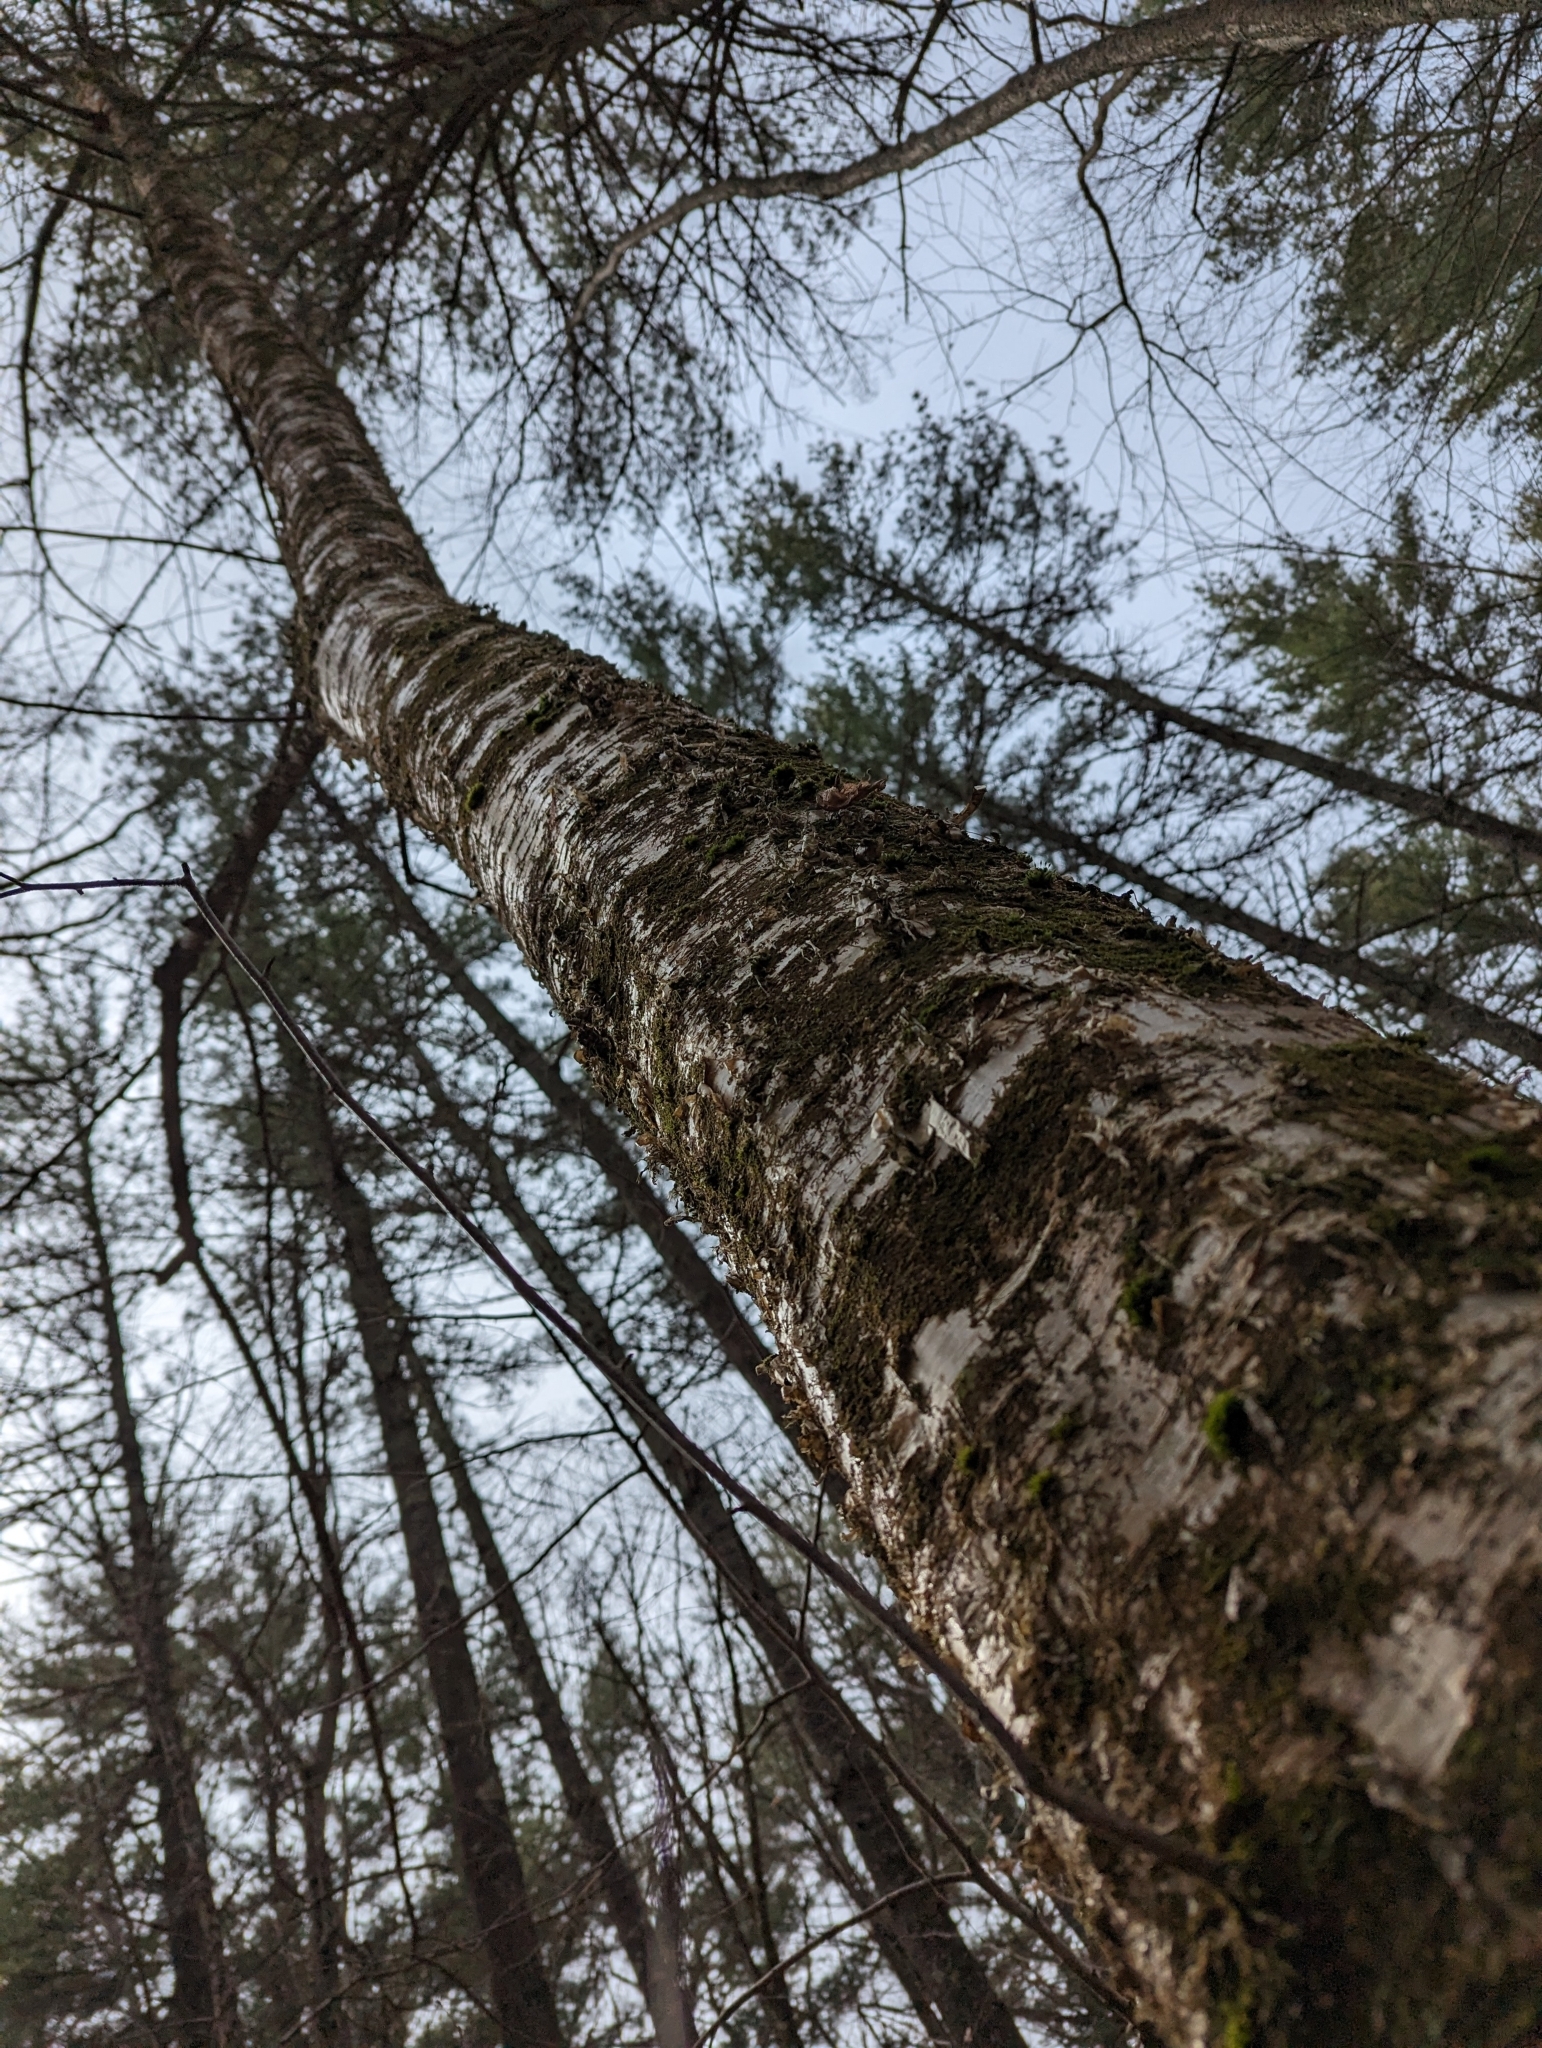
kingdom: Plantae
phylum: Tracheophyta
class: Magnoliopsida
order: Fagales
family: Betulaceae
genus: Betula
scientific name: Betula alleghaniensis
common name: Yellow birch
